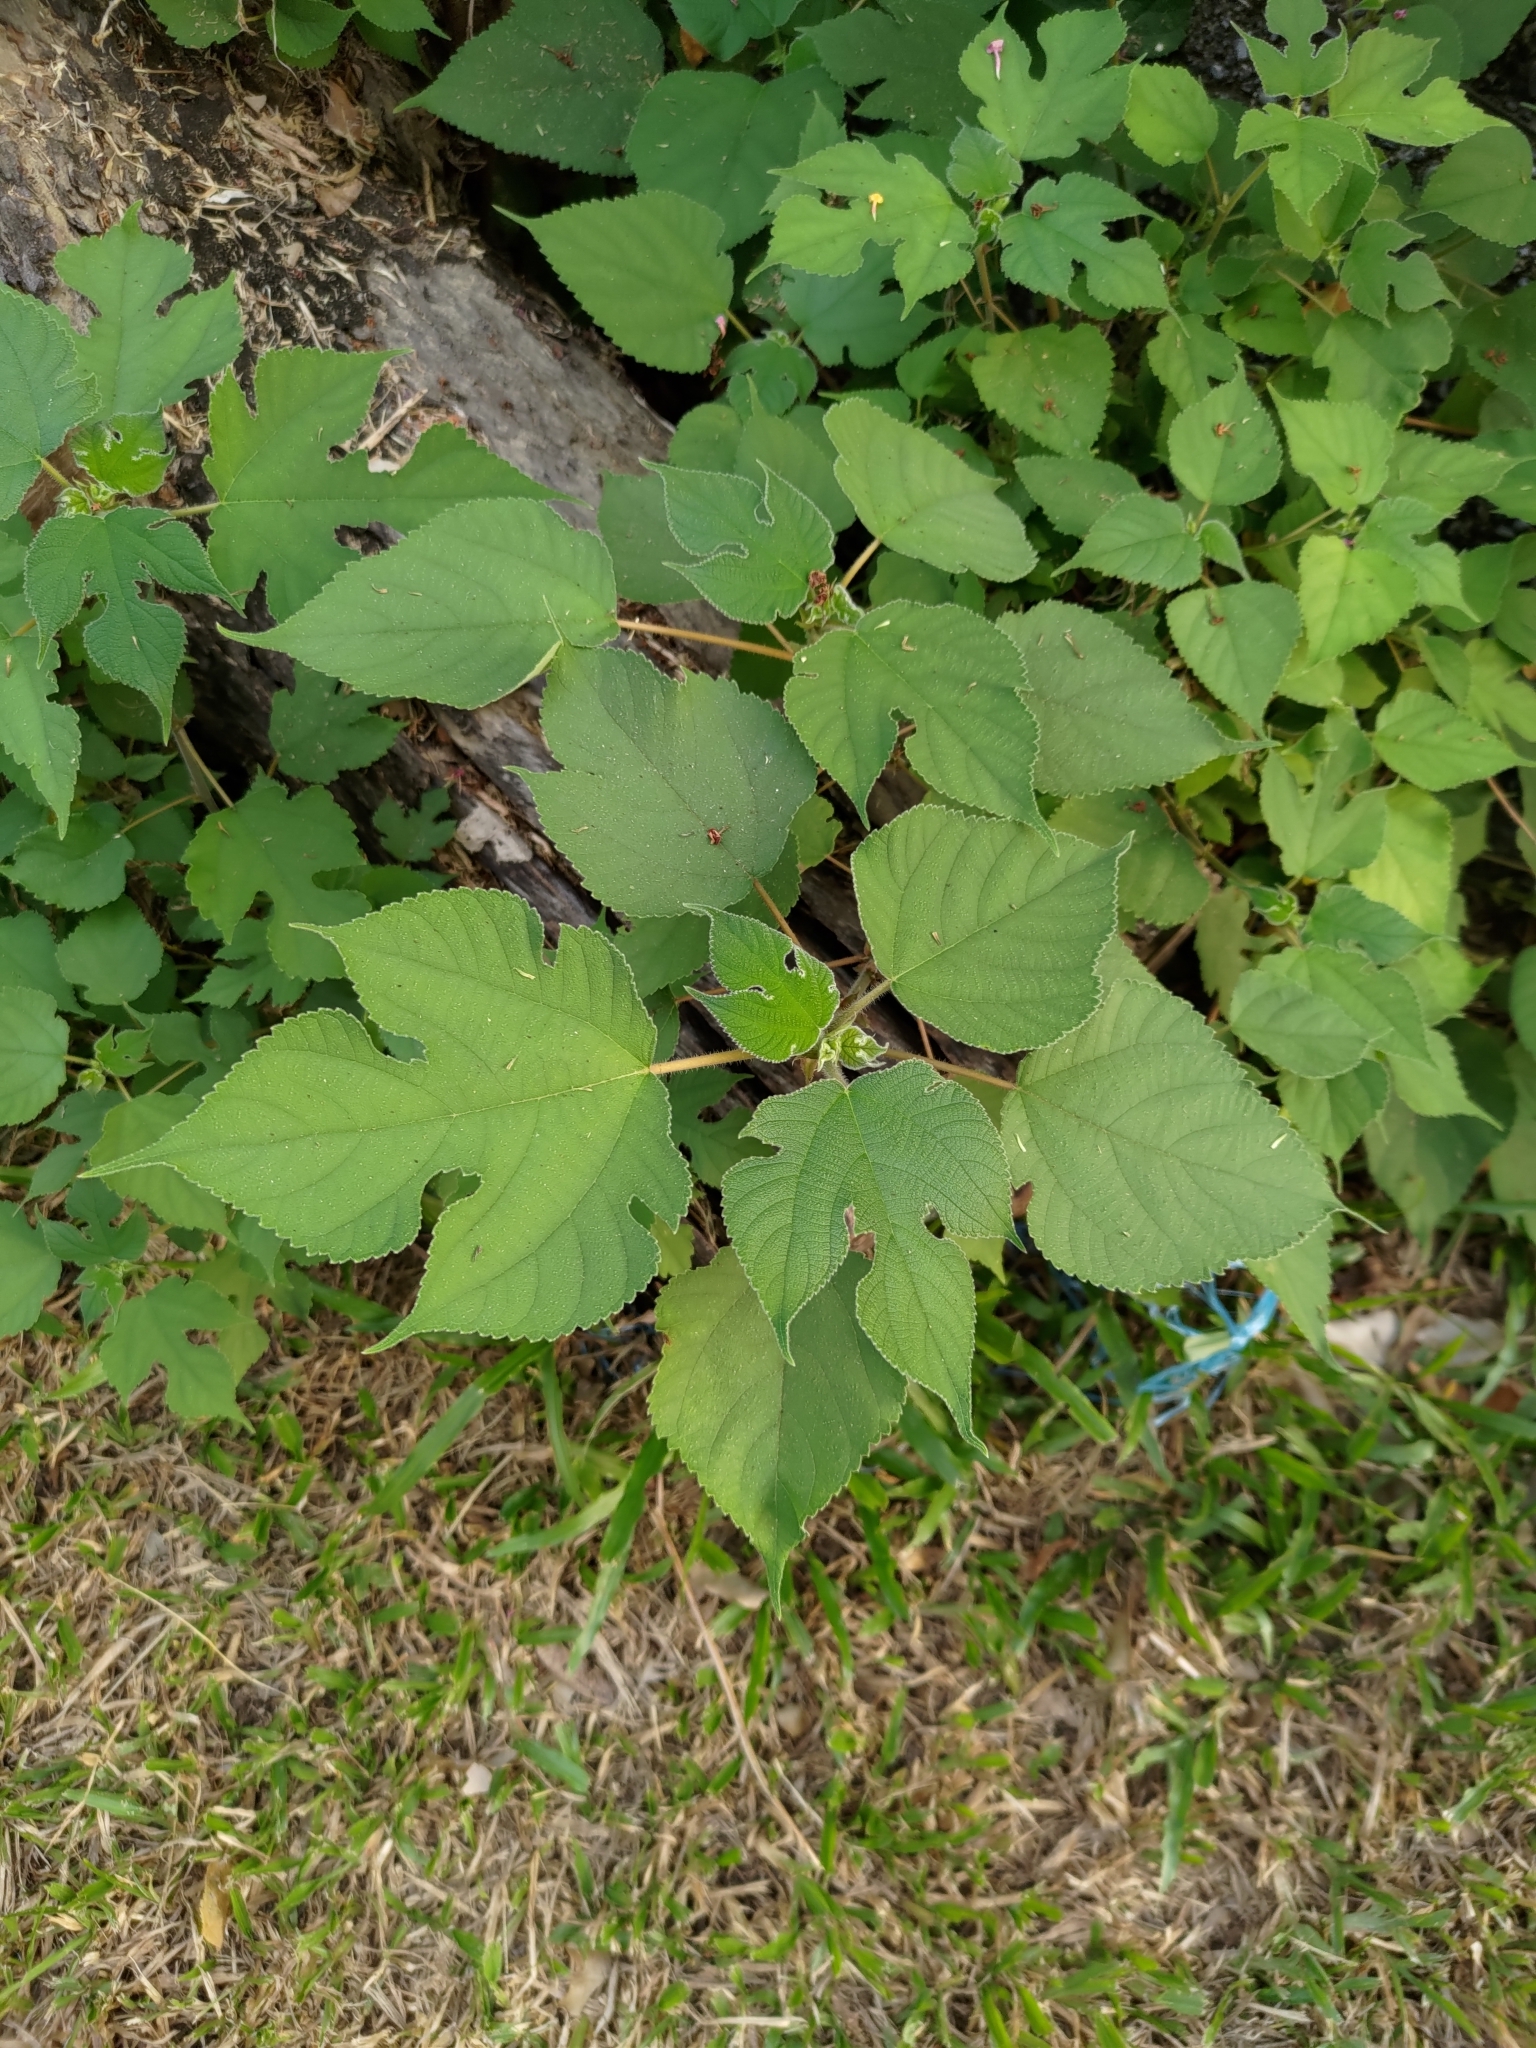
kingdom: Plantae
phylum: Tracheophyta
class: Magnoliopsida
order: Rosales
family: Moraceae
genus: Broussonetia
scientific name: Broussonetia papyrifera
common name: Paper mulberry
